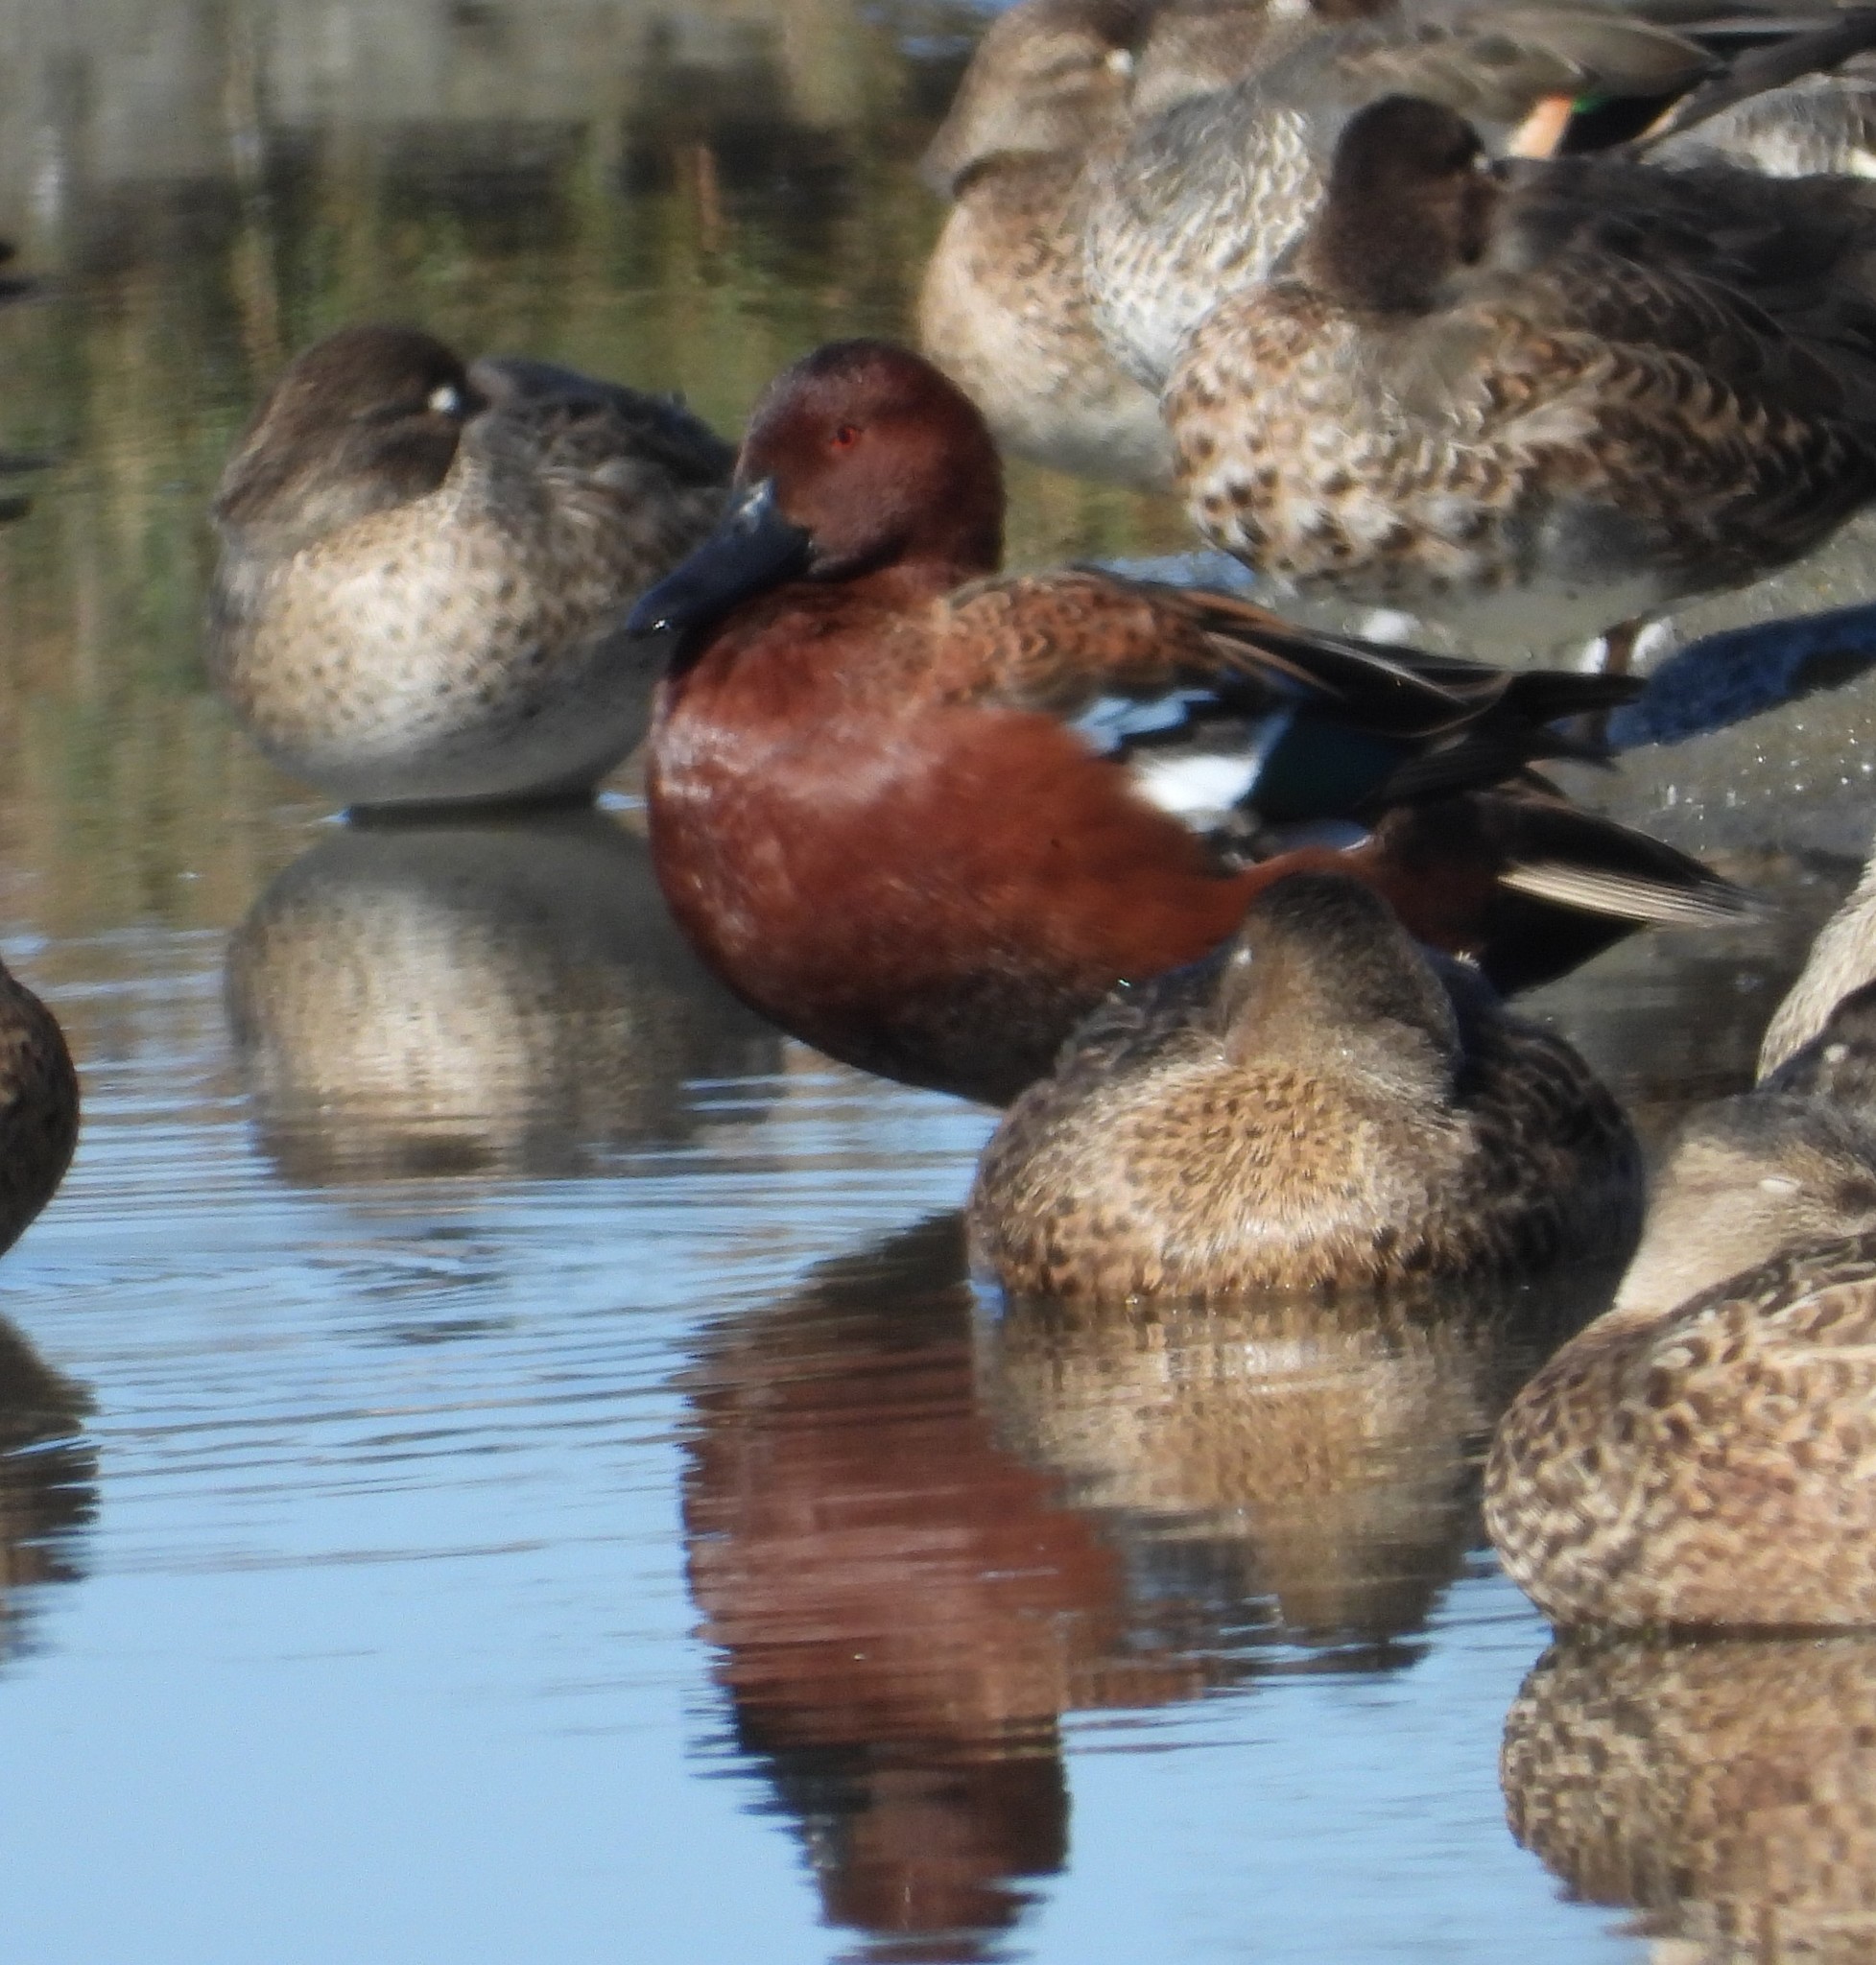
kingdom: Animalia
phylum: Chordata
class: Aves
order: Anseriformes
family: Anatidae
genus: Spatula
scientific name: Spatula cyanoptera
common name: Cinnamon teal
